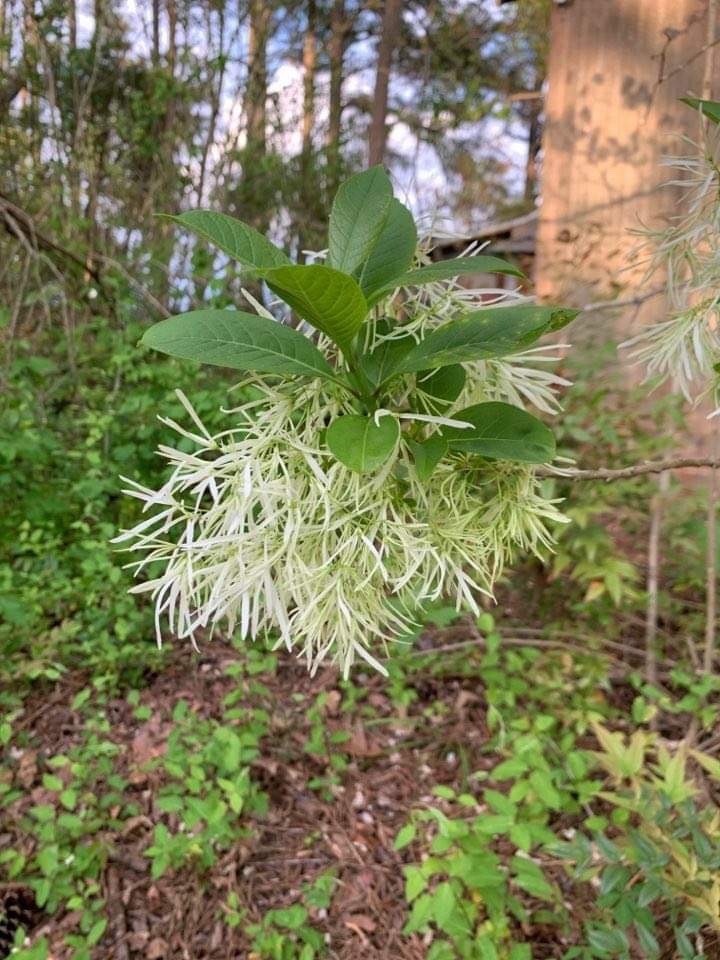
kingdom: Plantae
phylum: Tracheophyta
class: Magnoliopsida
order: Lamiales
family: Oleaceae
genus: Chionanthus
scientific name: Chionanthus virginicus
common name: American fringetree
